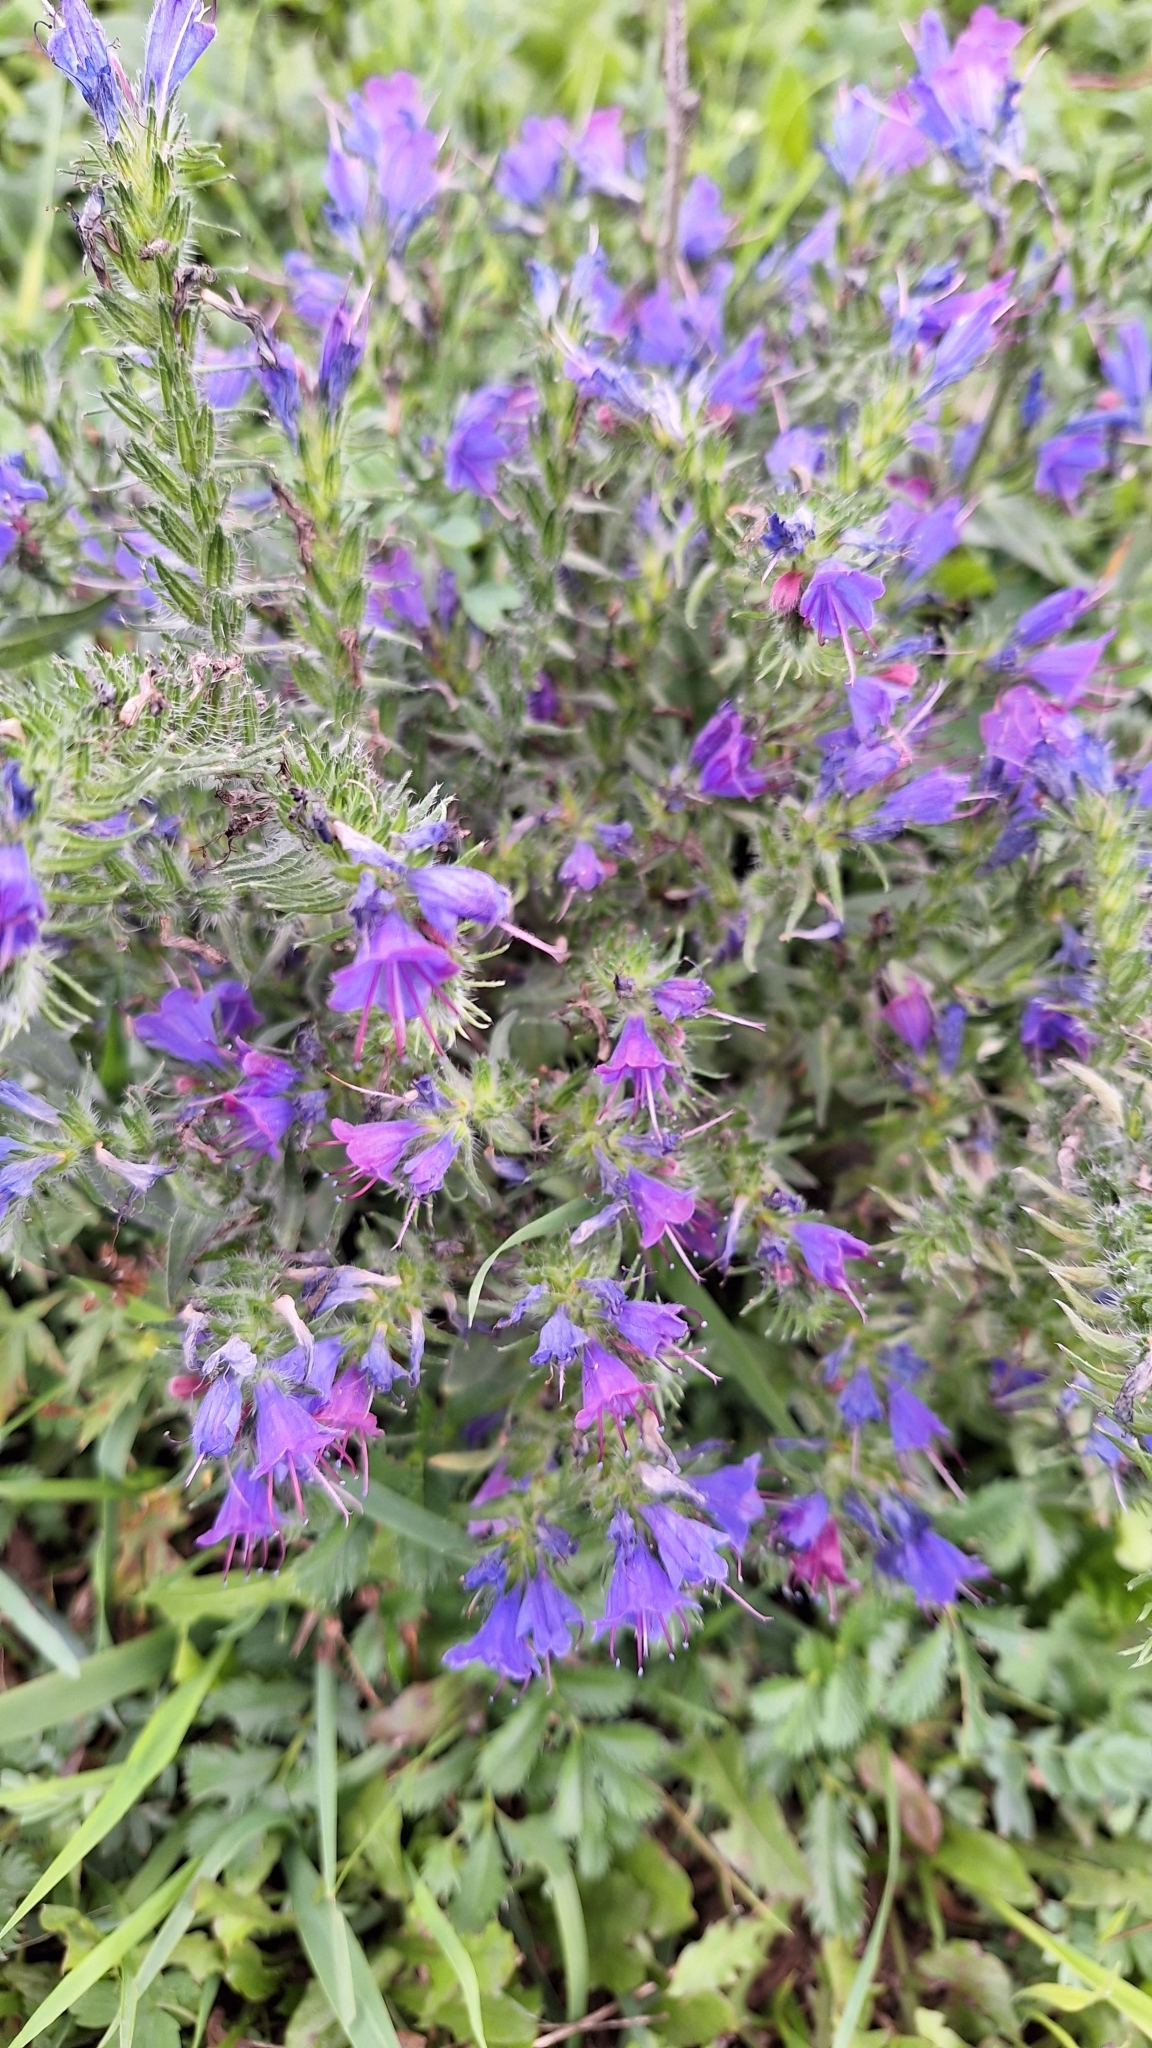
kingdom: Plantae
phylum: Tracheophyta
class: Magnoliopsida
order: Boraginales
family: Boraginaceae
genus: Echium
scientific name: Echium vulgare
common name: Common viper's bugloss
